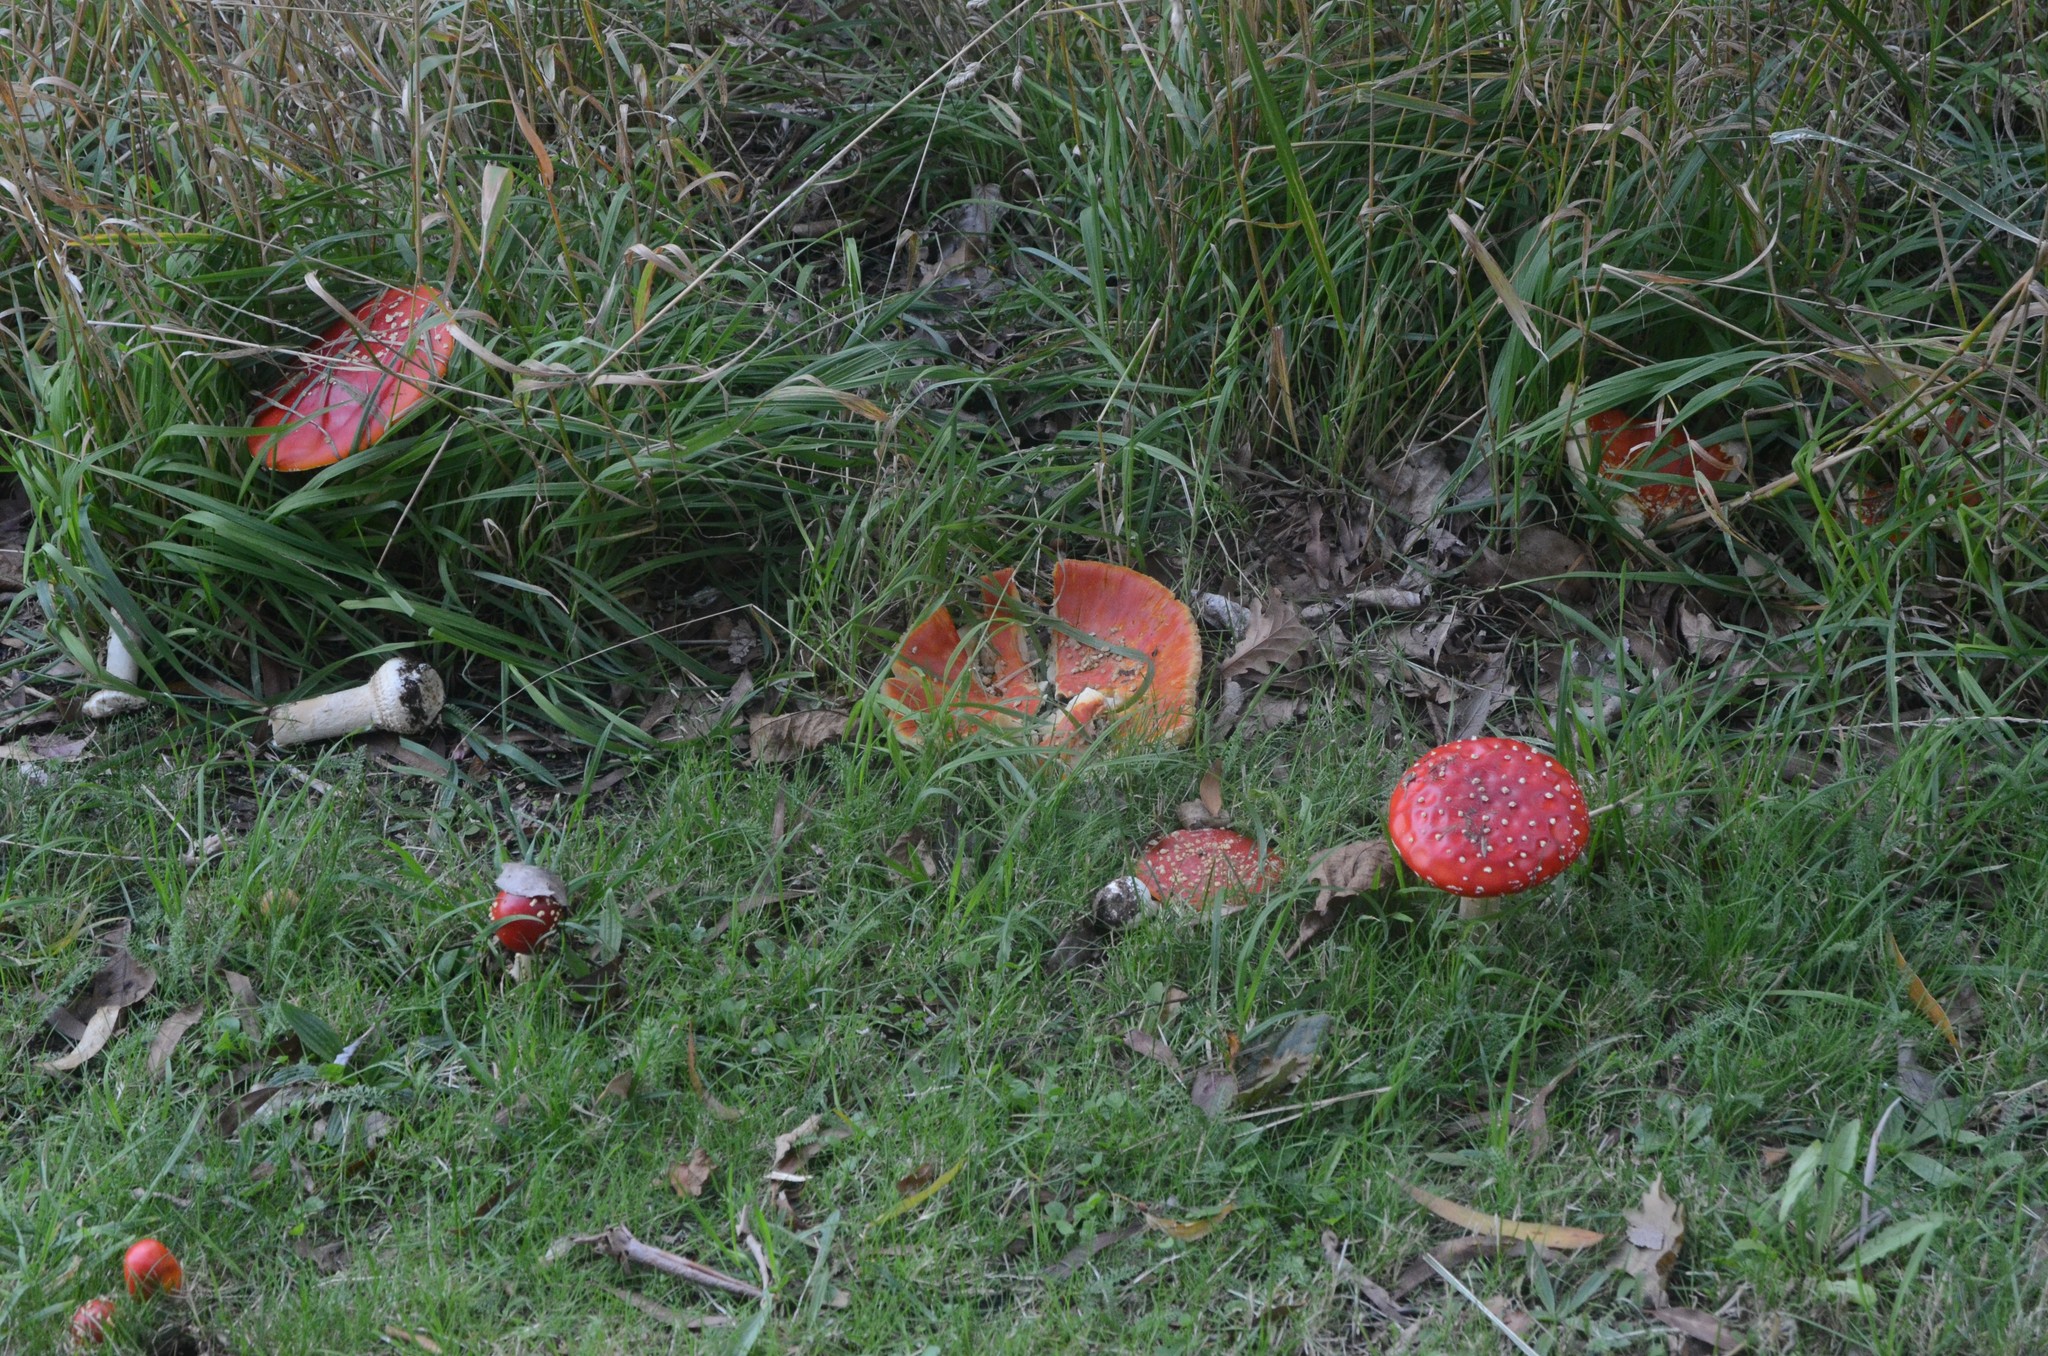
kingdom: Fungi
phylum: Basidiomycota
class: Agaricomycetes
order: Agaricales
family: Amanitaceae
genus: Amanita
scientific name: Amanita muscaria
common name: Fly agaric
